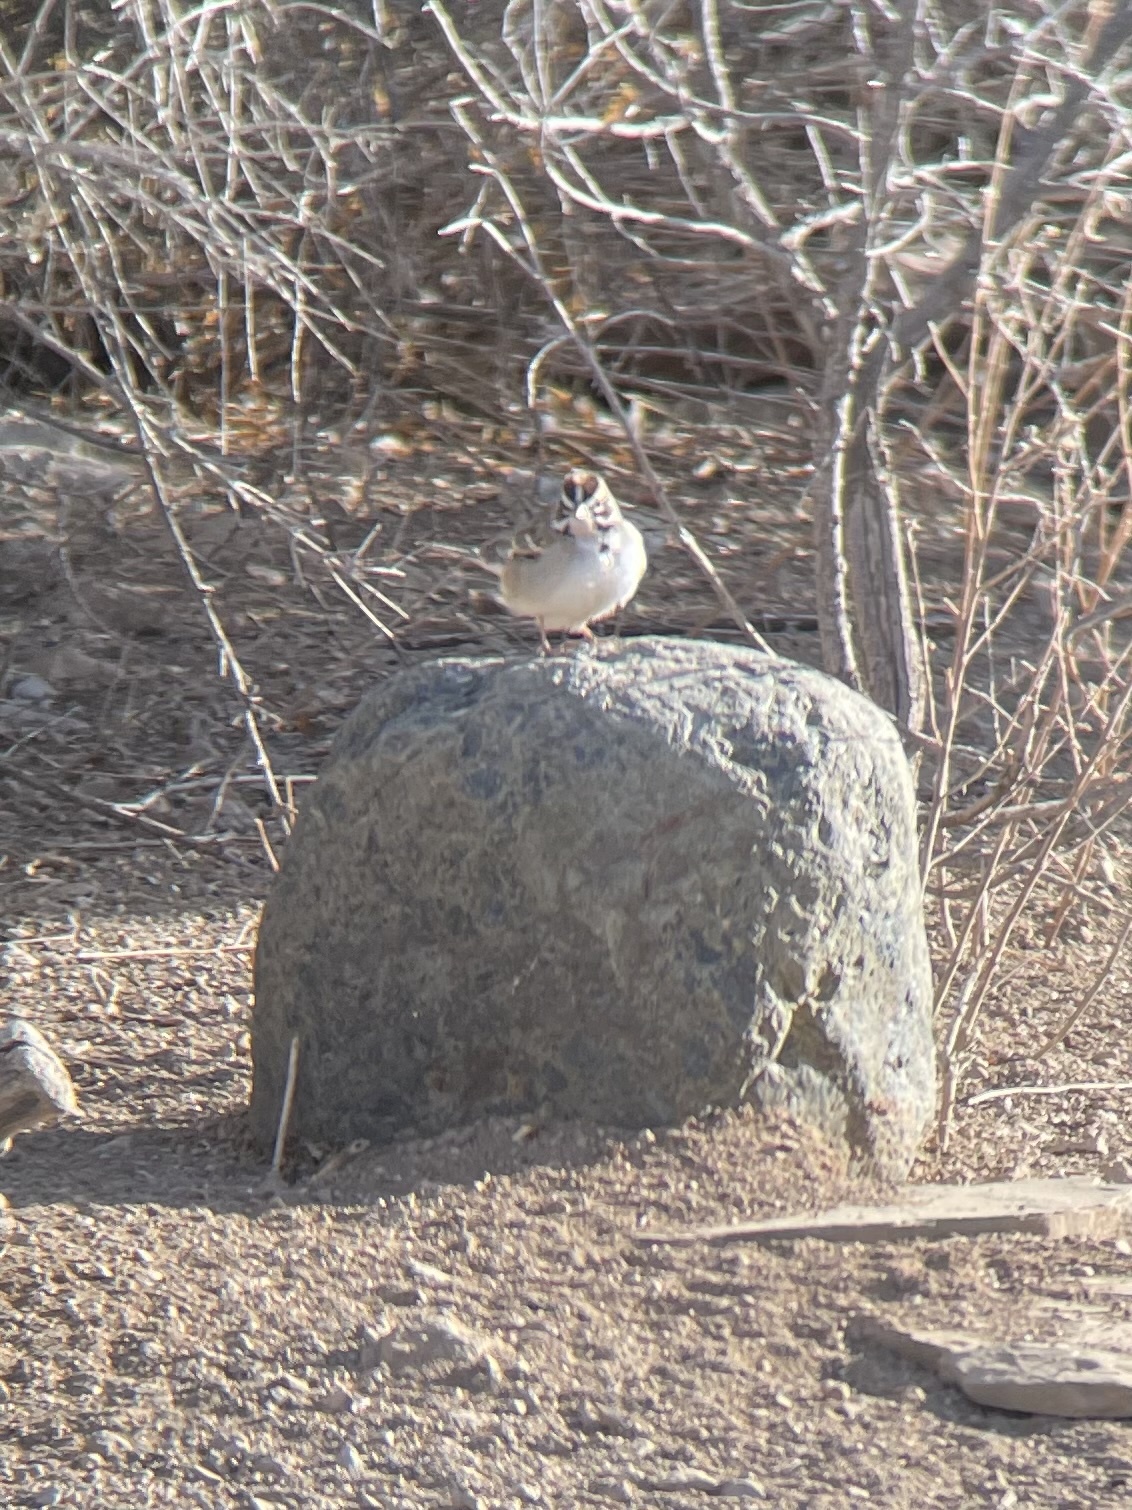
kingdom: Animalia
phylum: Chordata
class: Aves
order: Passeriformes
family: Passerellidae
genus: Chondestes
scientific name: Chondestes grammacus
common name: Lark sparrow
